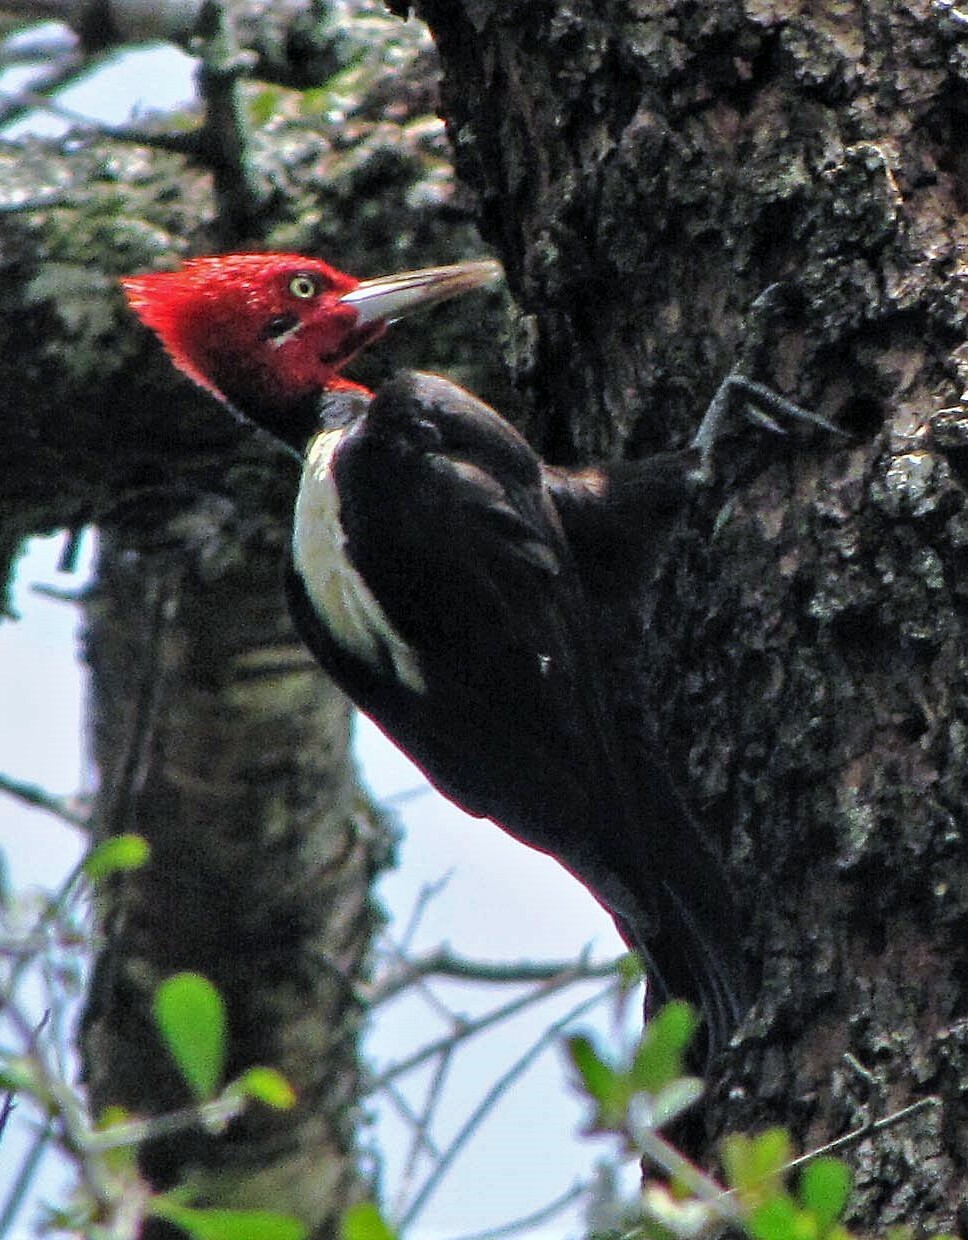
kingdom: Animalia
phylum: Chordata
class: Aves
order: Piciformes
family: Picidae
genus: Campephilus
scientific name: Campephilus leucopogon
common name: Cream-backed woodpecker
